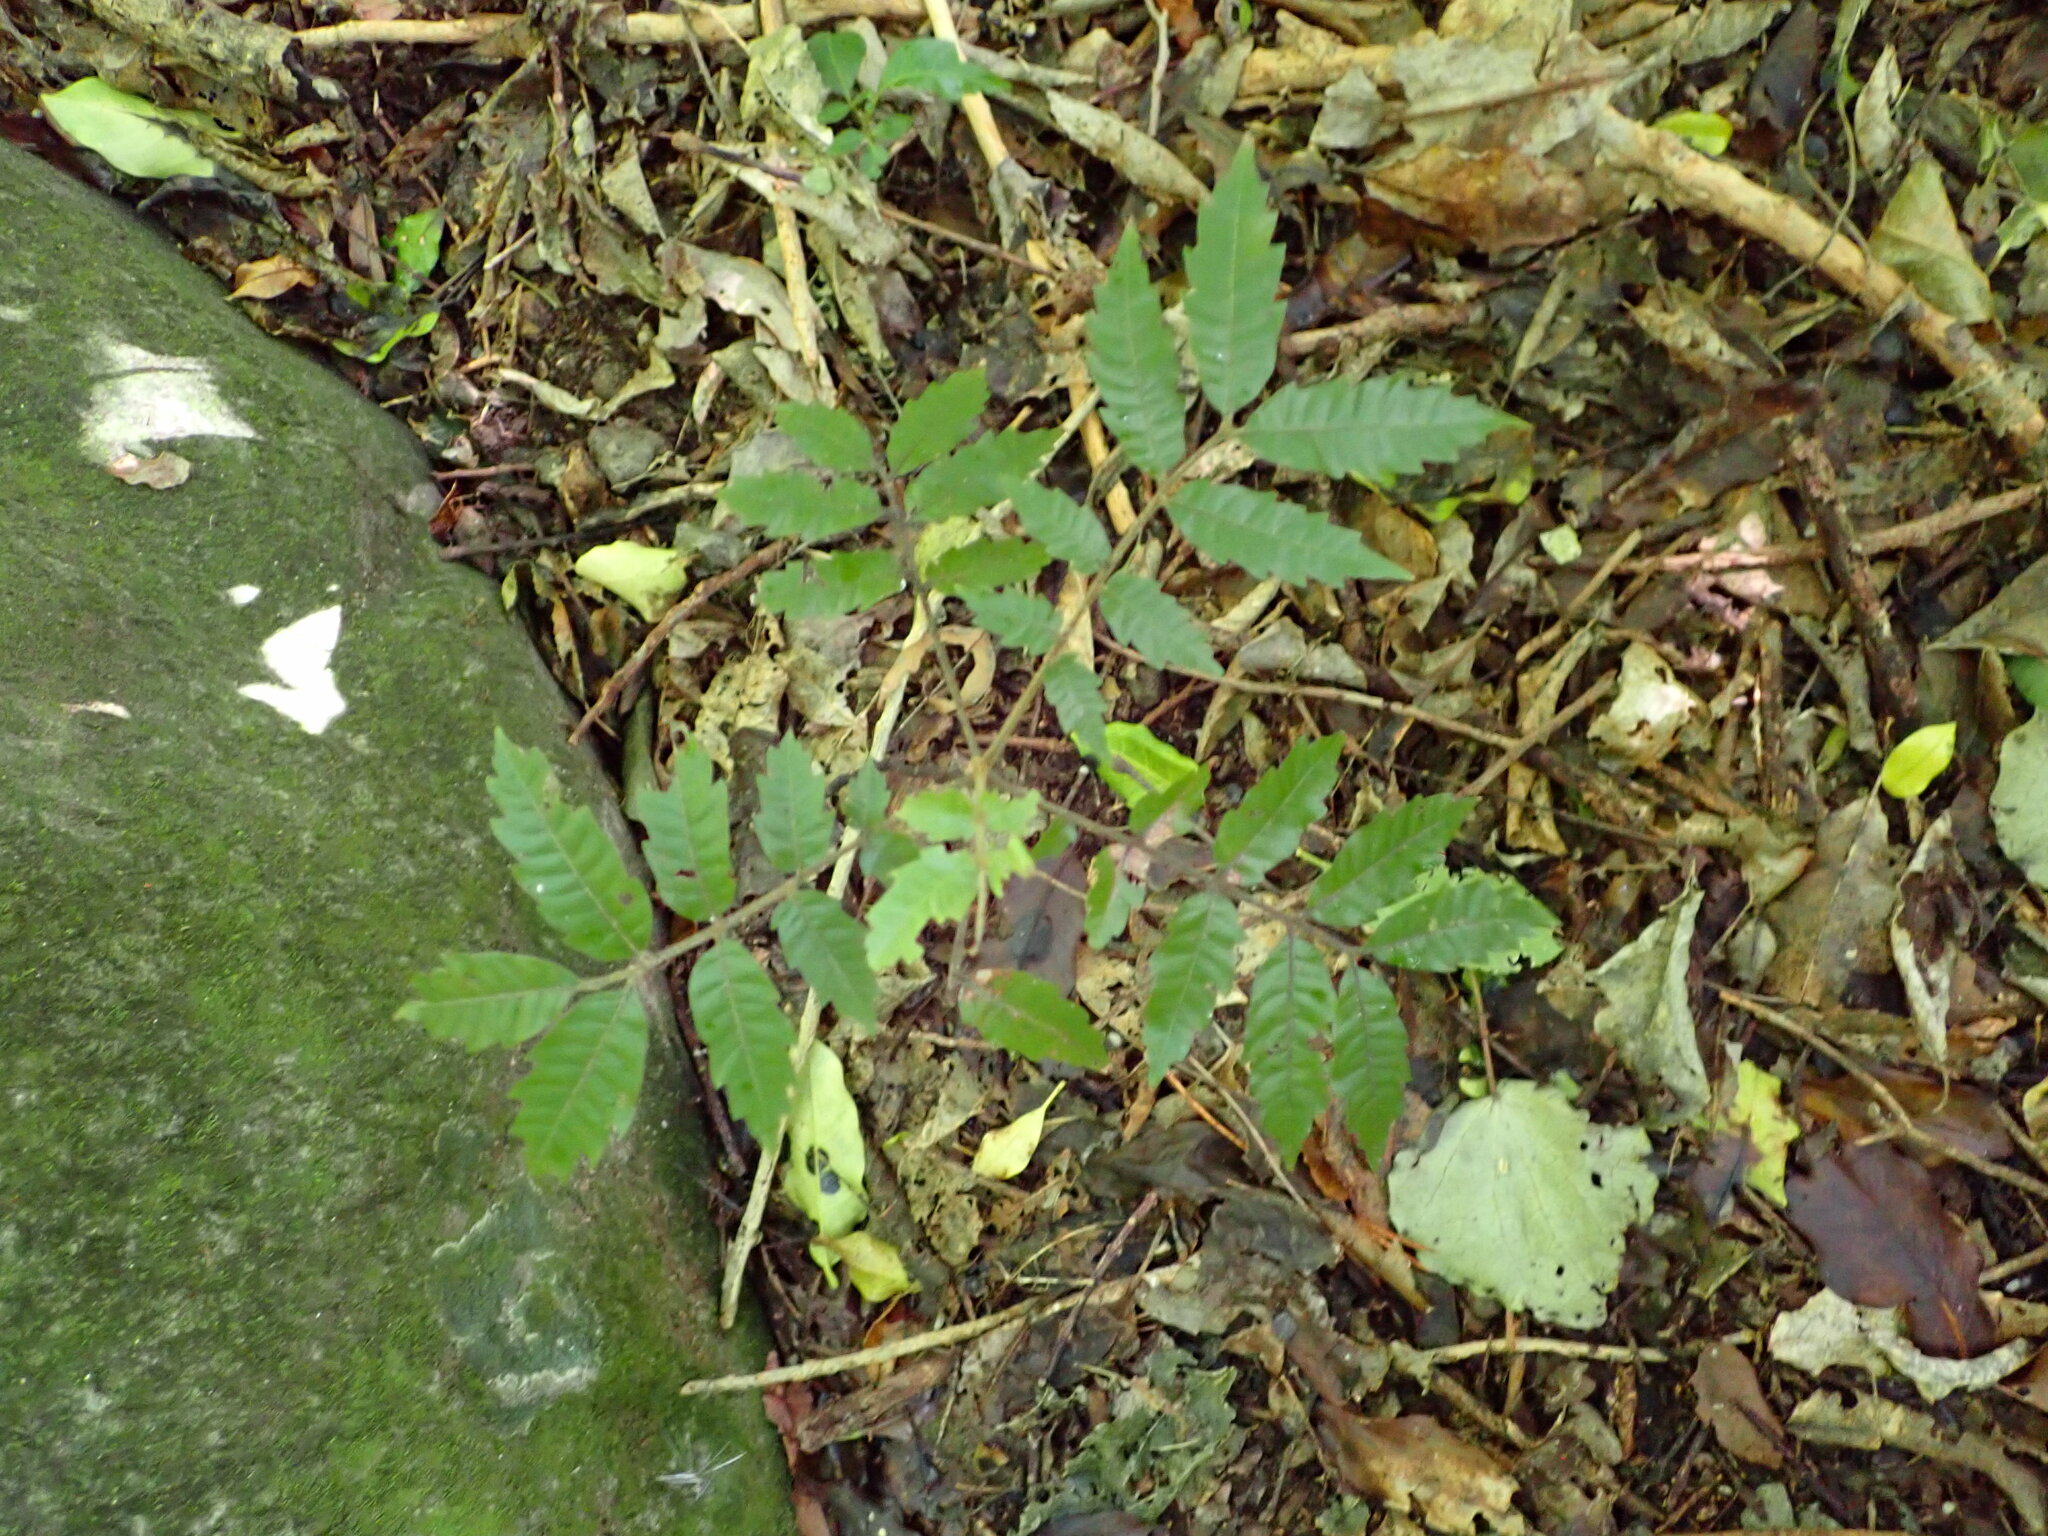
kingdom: Plantae
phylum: Tracheophyta
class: Magnoliopsida
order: Sapindales
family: Sapindaceae
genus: Alectryon
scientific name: Alectryon excelsus
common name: Three kings titoki
